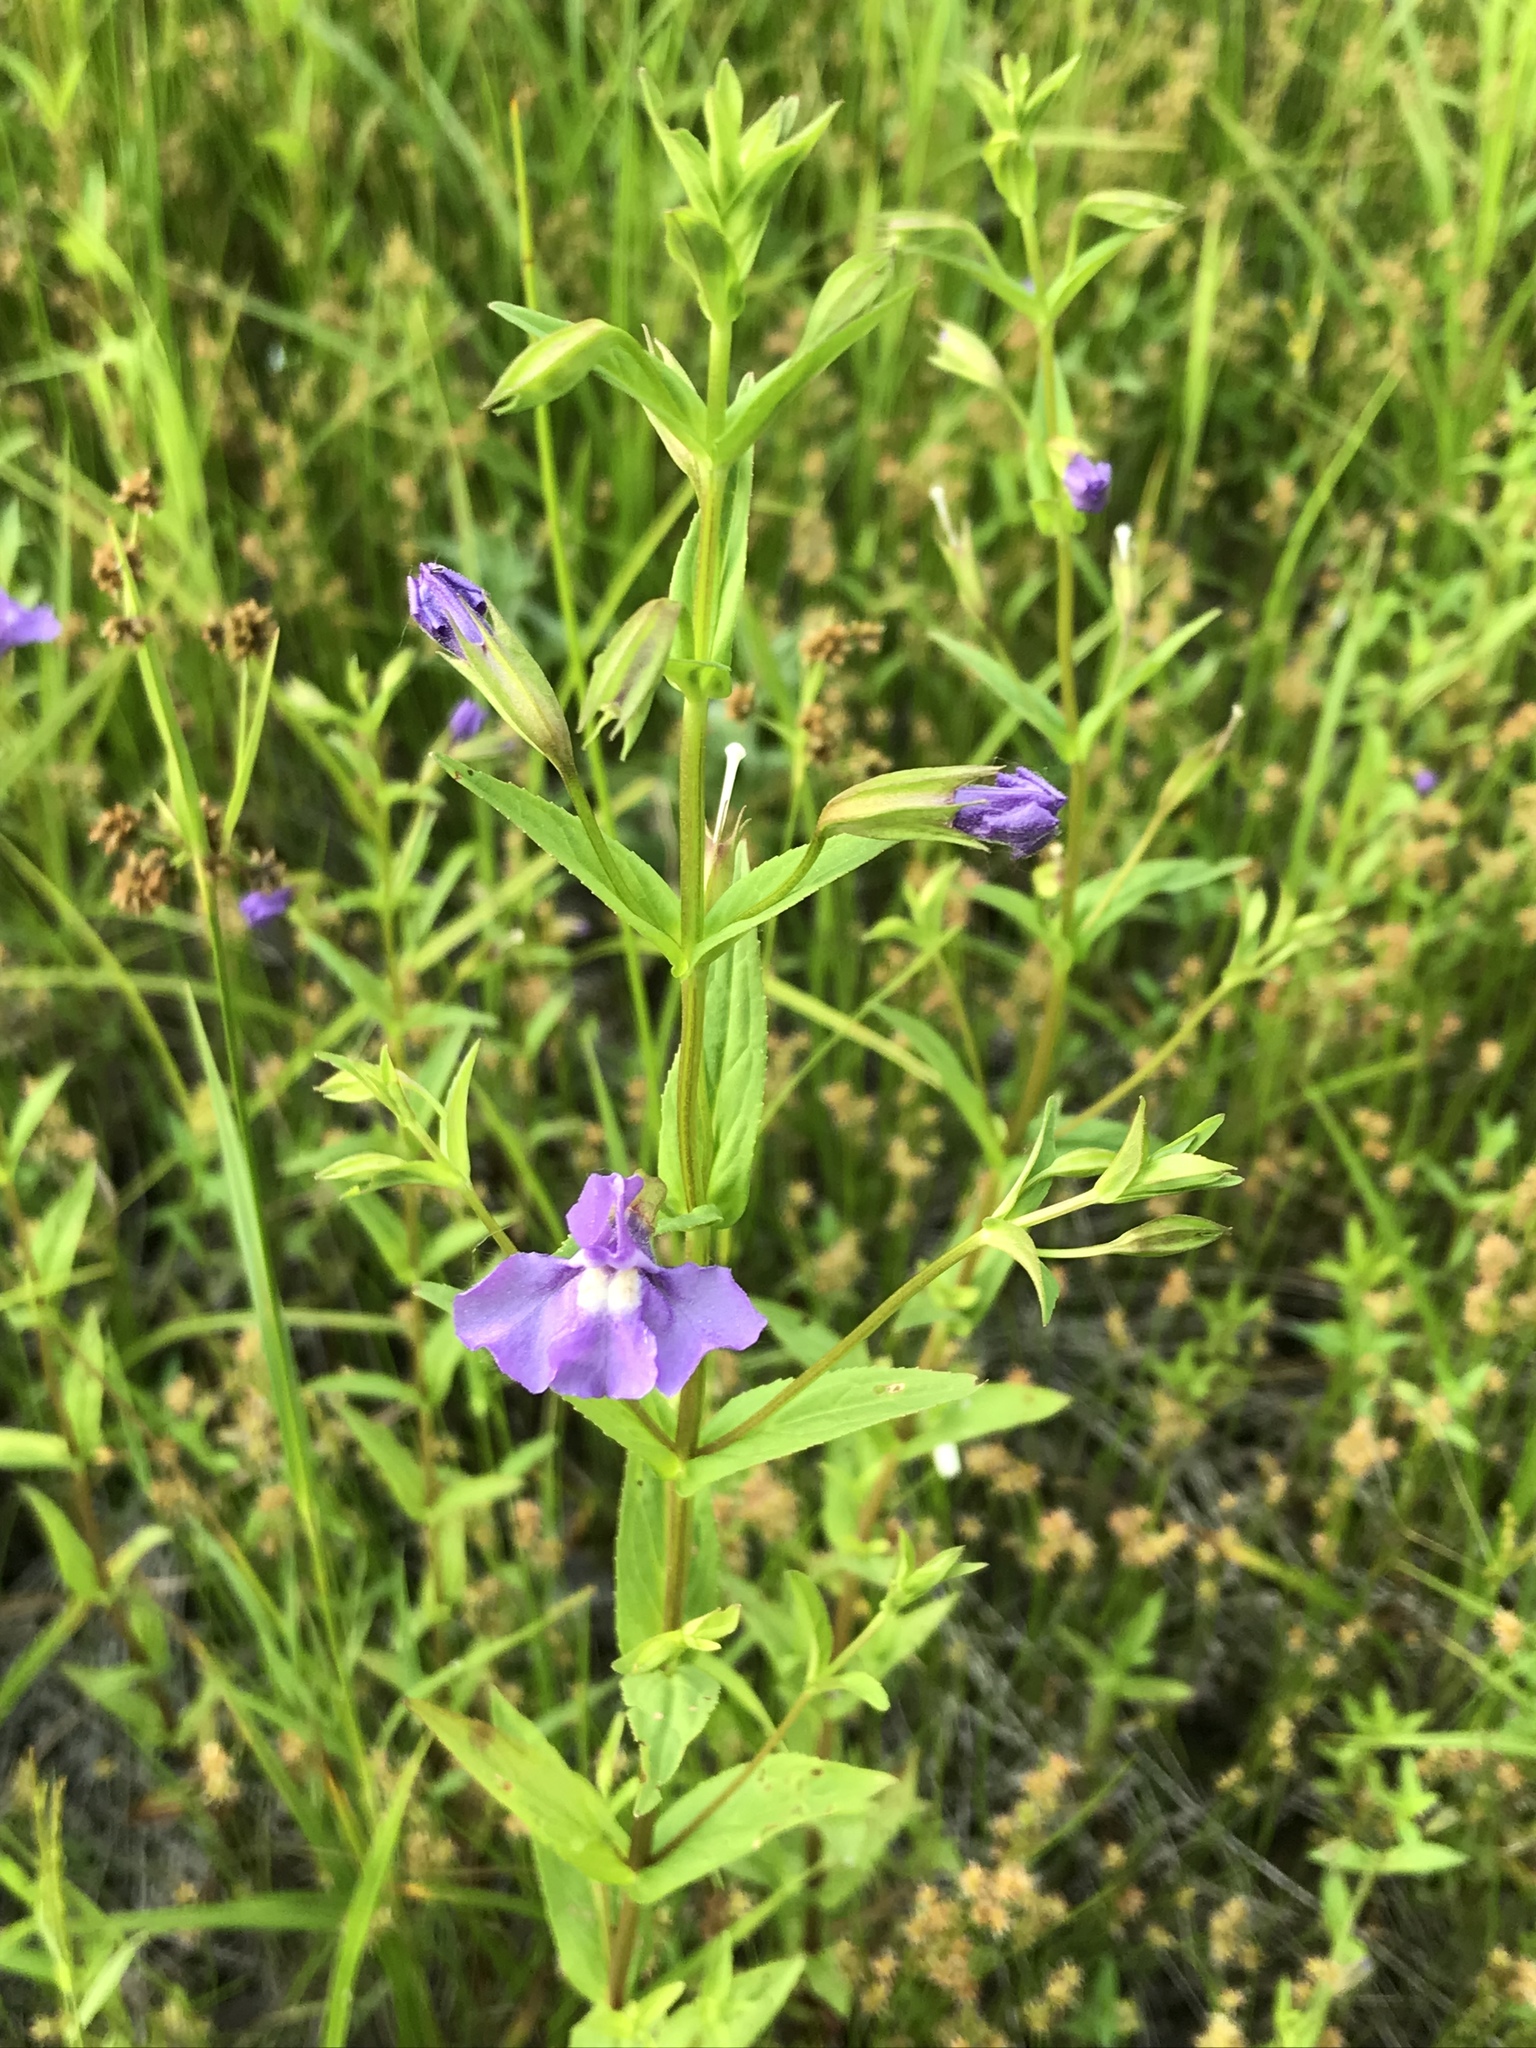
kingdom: Plantae
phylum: Tracheophyta
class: Magnoliopsida
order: Lamiales
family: Phrymaceae
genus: Mimulus
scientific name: Mimulus ringens
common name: Allegheny monkeyflower
